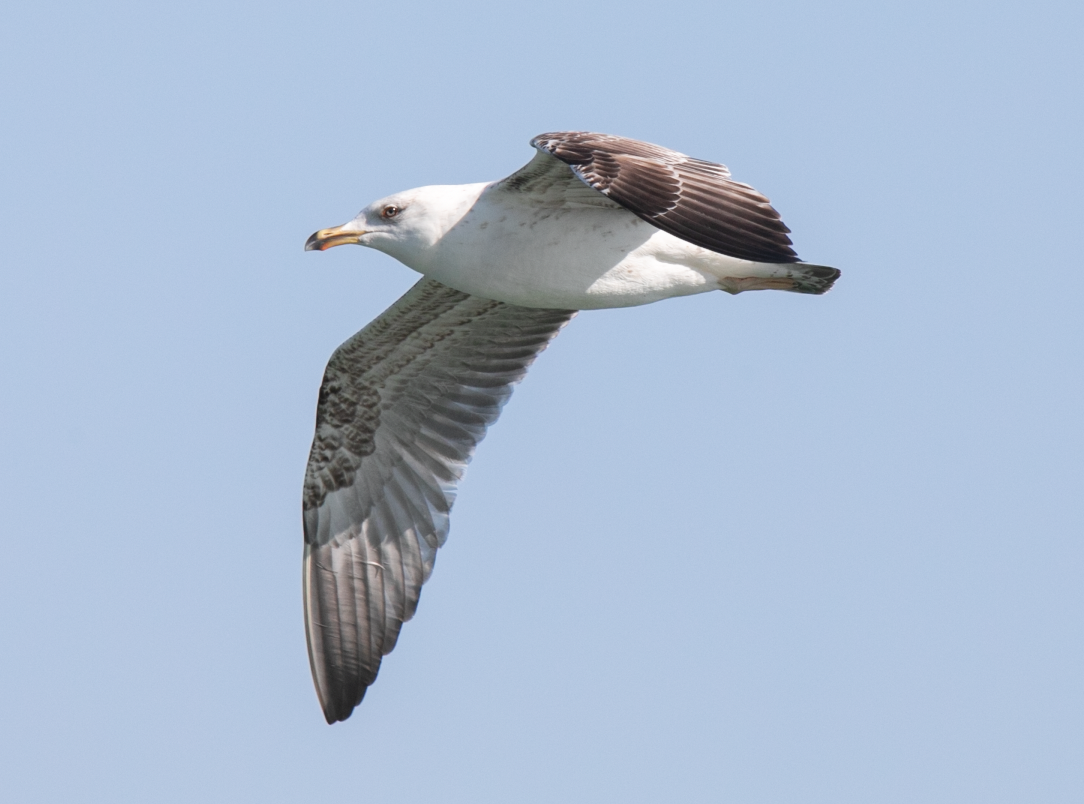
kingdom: Animalia
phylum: Chordata
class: Aves
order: Charadriiformes
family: Laridae
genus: Larus
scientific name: Larus michahellis
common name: Yellow-legged gull
